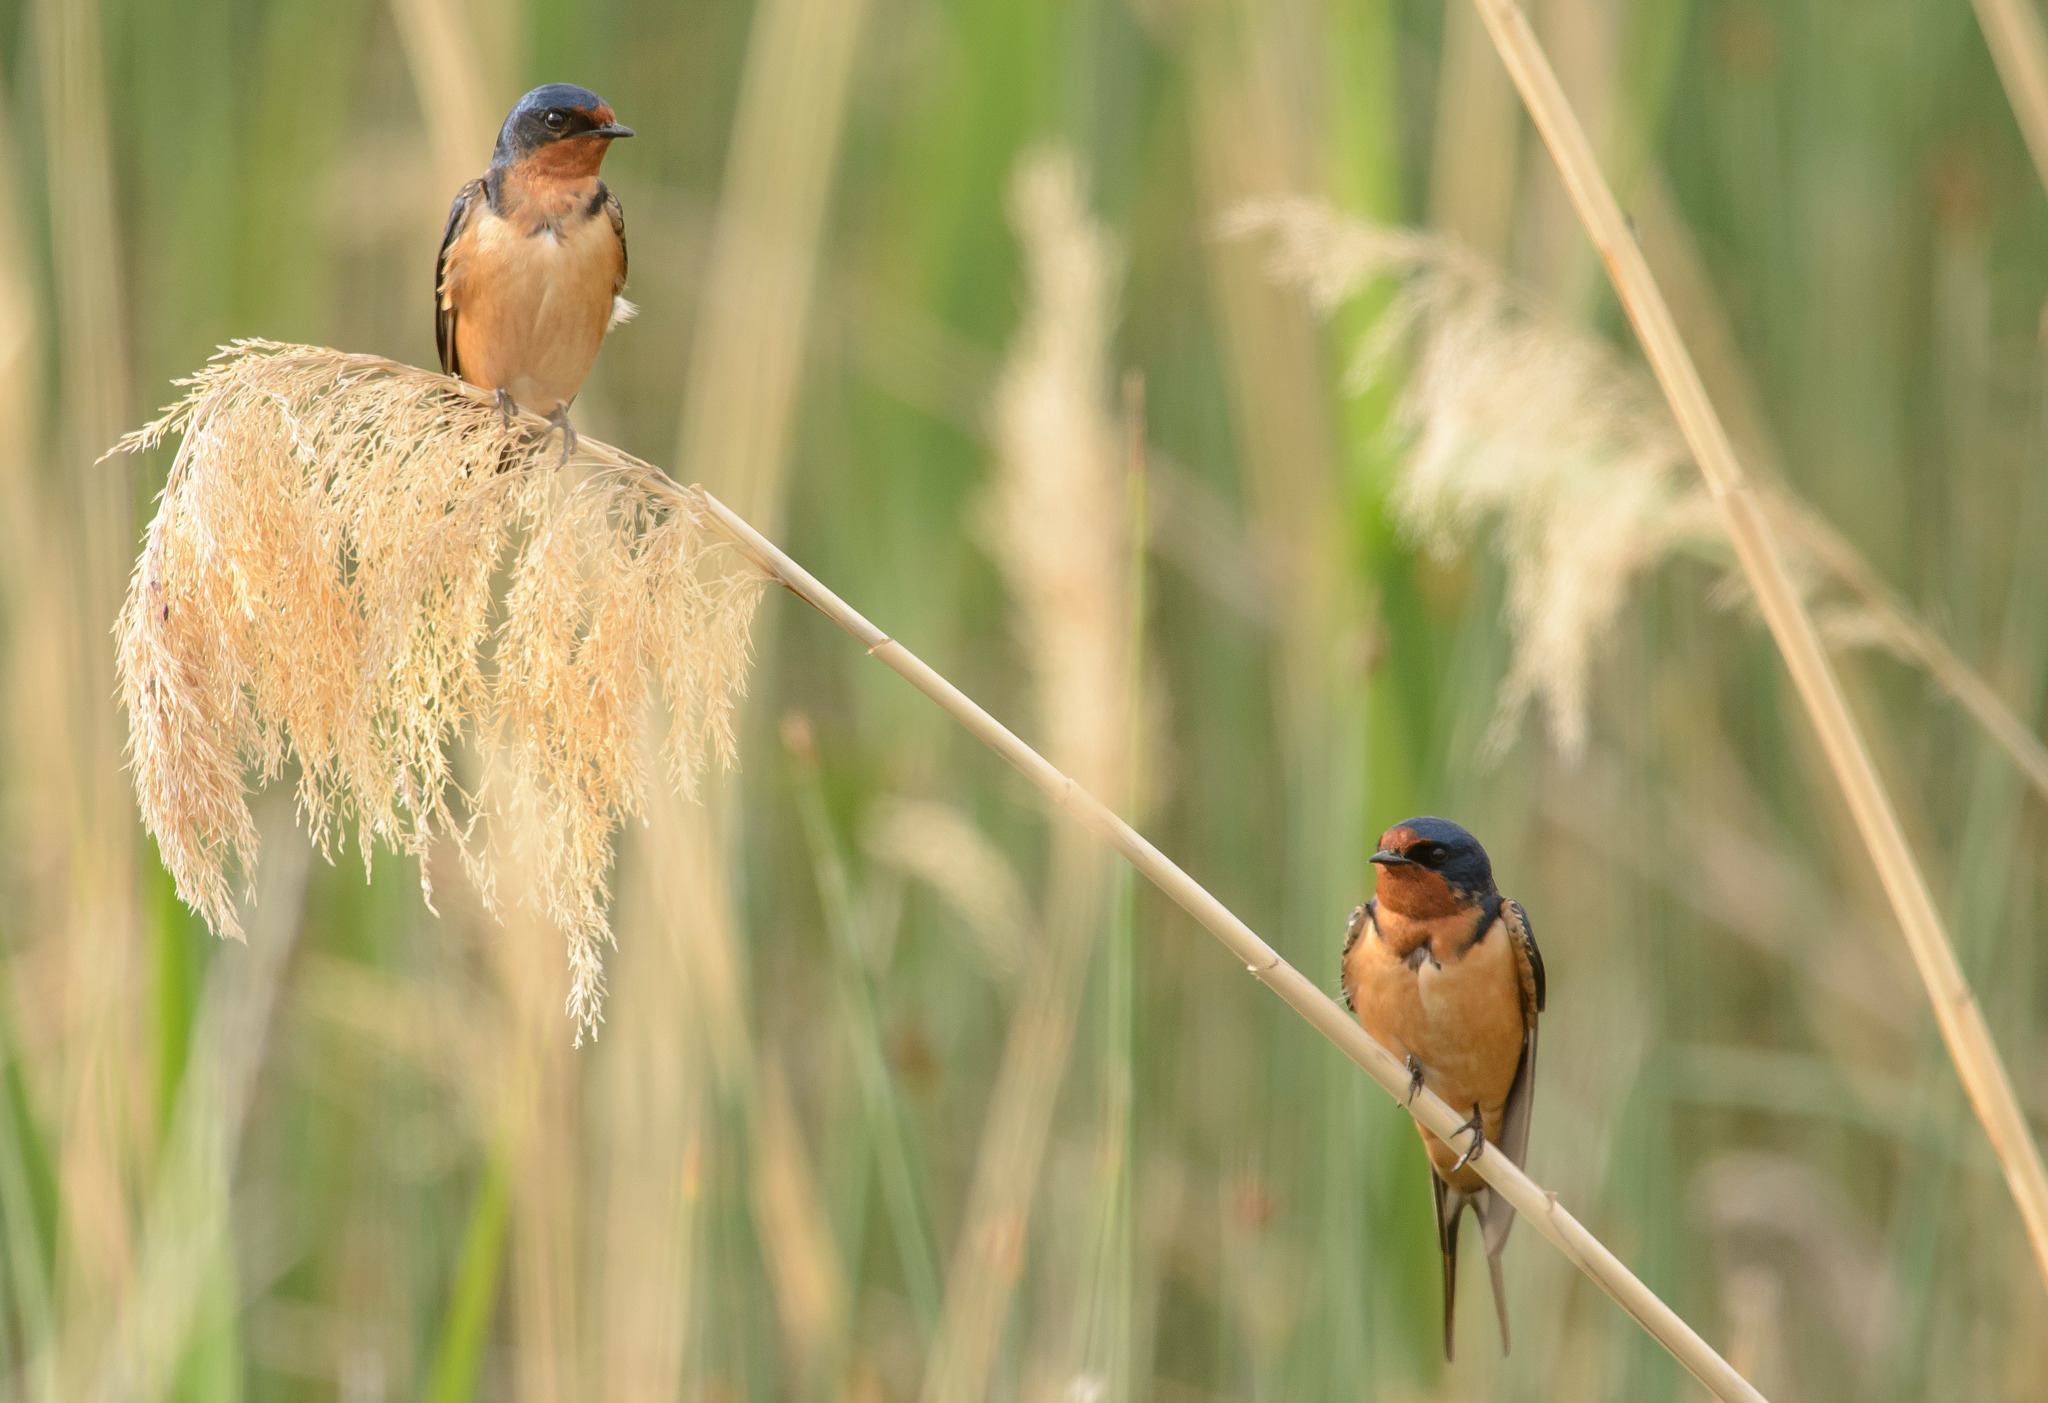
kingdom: Animalia
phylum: Chordata
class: Aves
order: Passeriformes
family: Hirundinidae
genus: Hirundo
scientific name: Hirundo rustica
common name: Barn swallow
